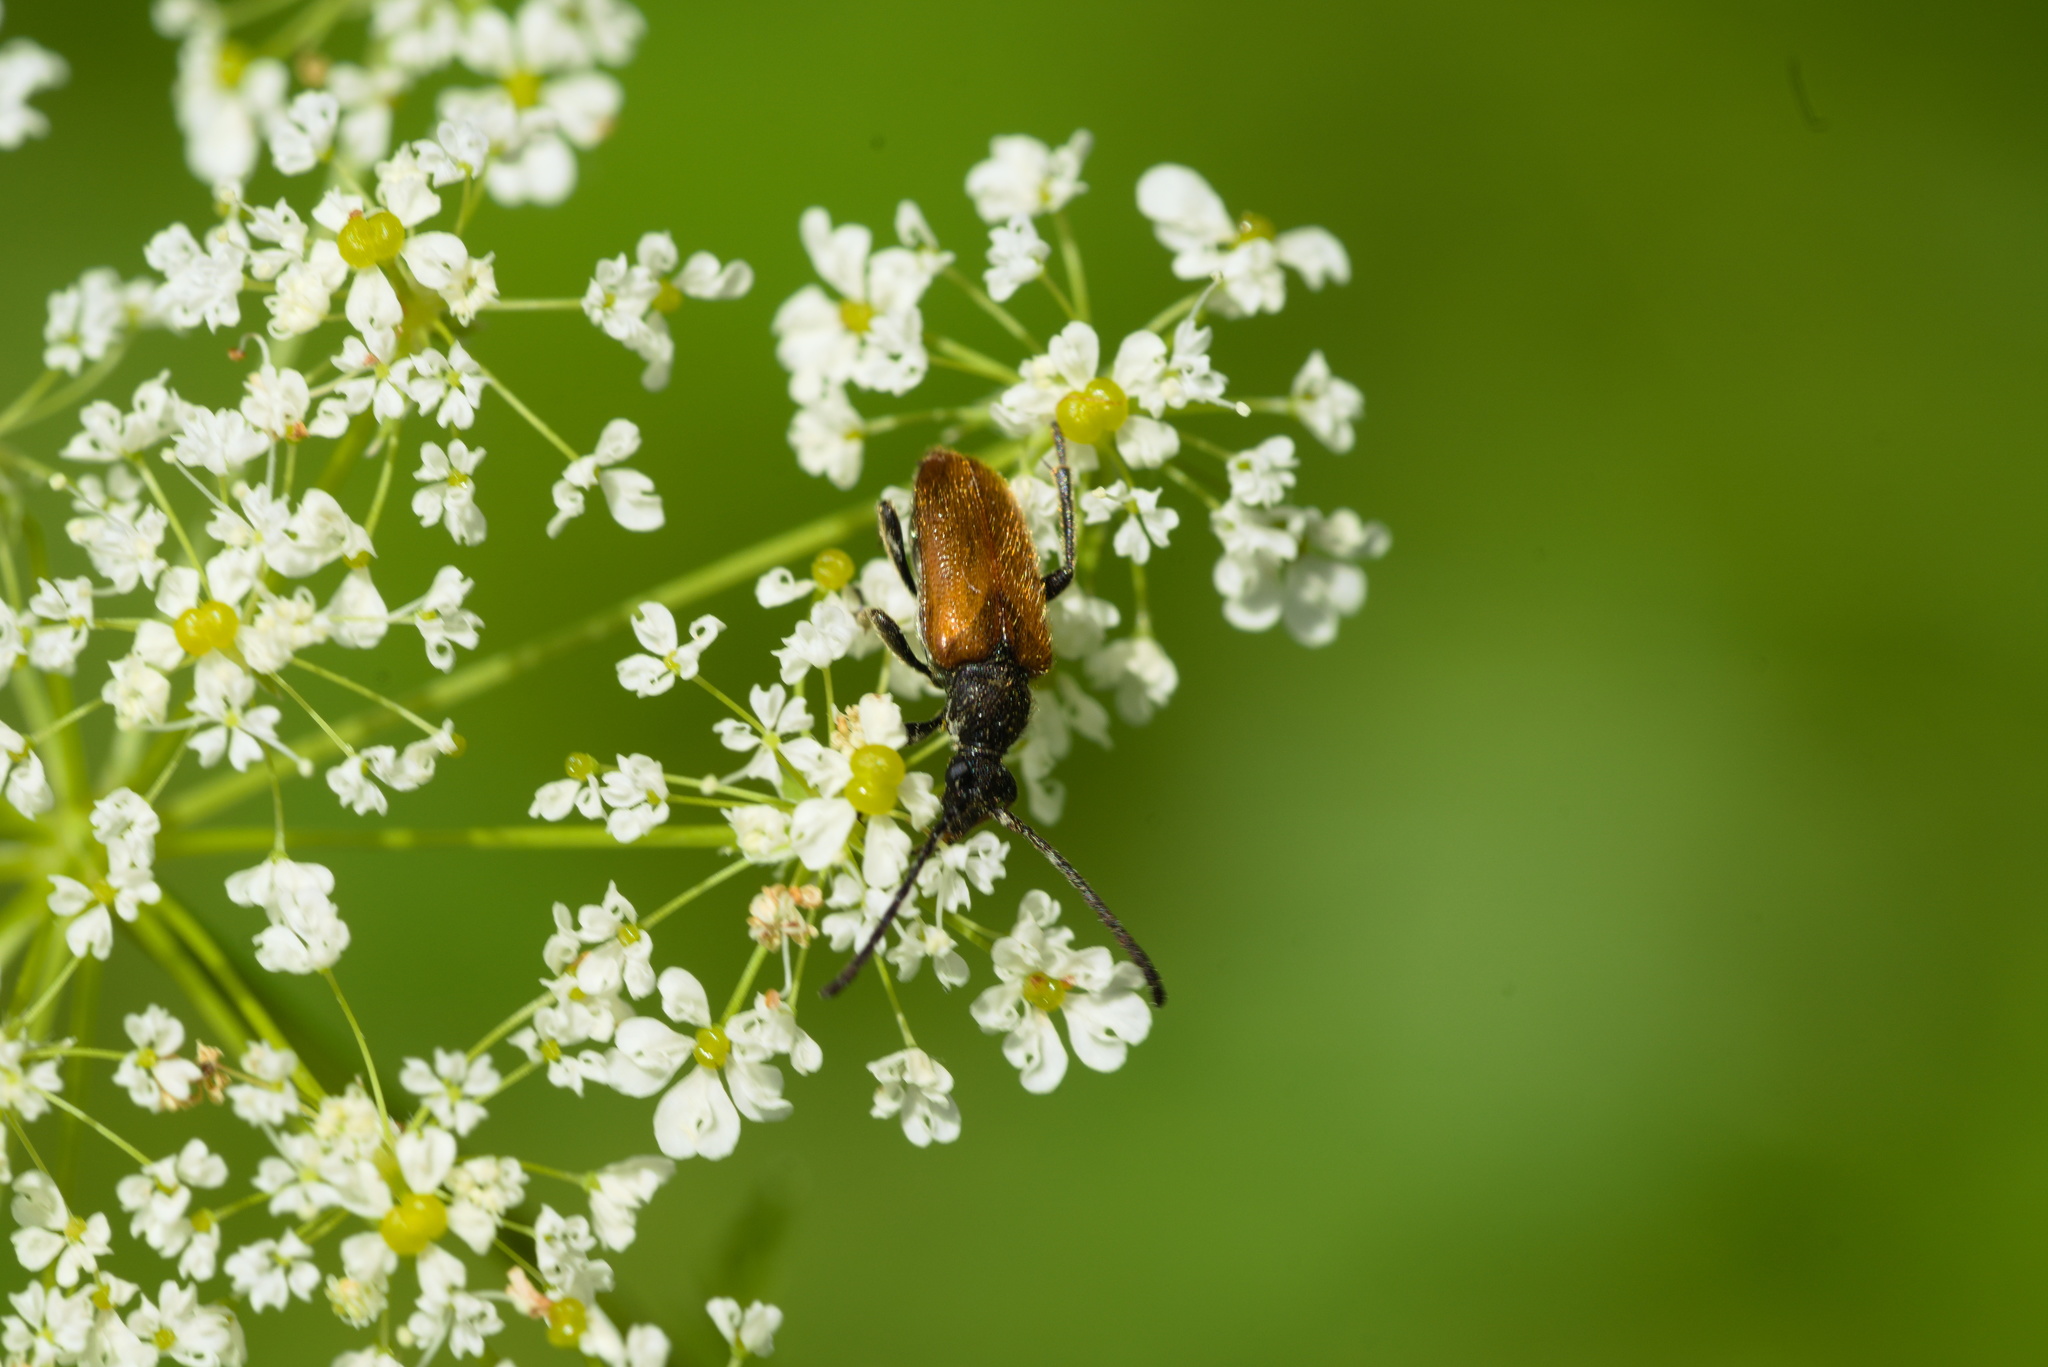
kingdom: Animalia
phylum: Arthropoda
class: Insecta
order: Coleoptera
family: Cerambycidae
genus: Pseudovadonia
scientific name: Pseudovadonia livida
